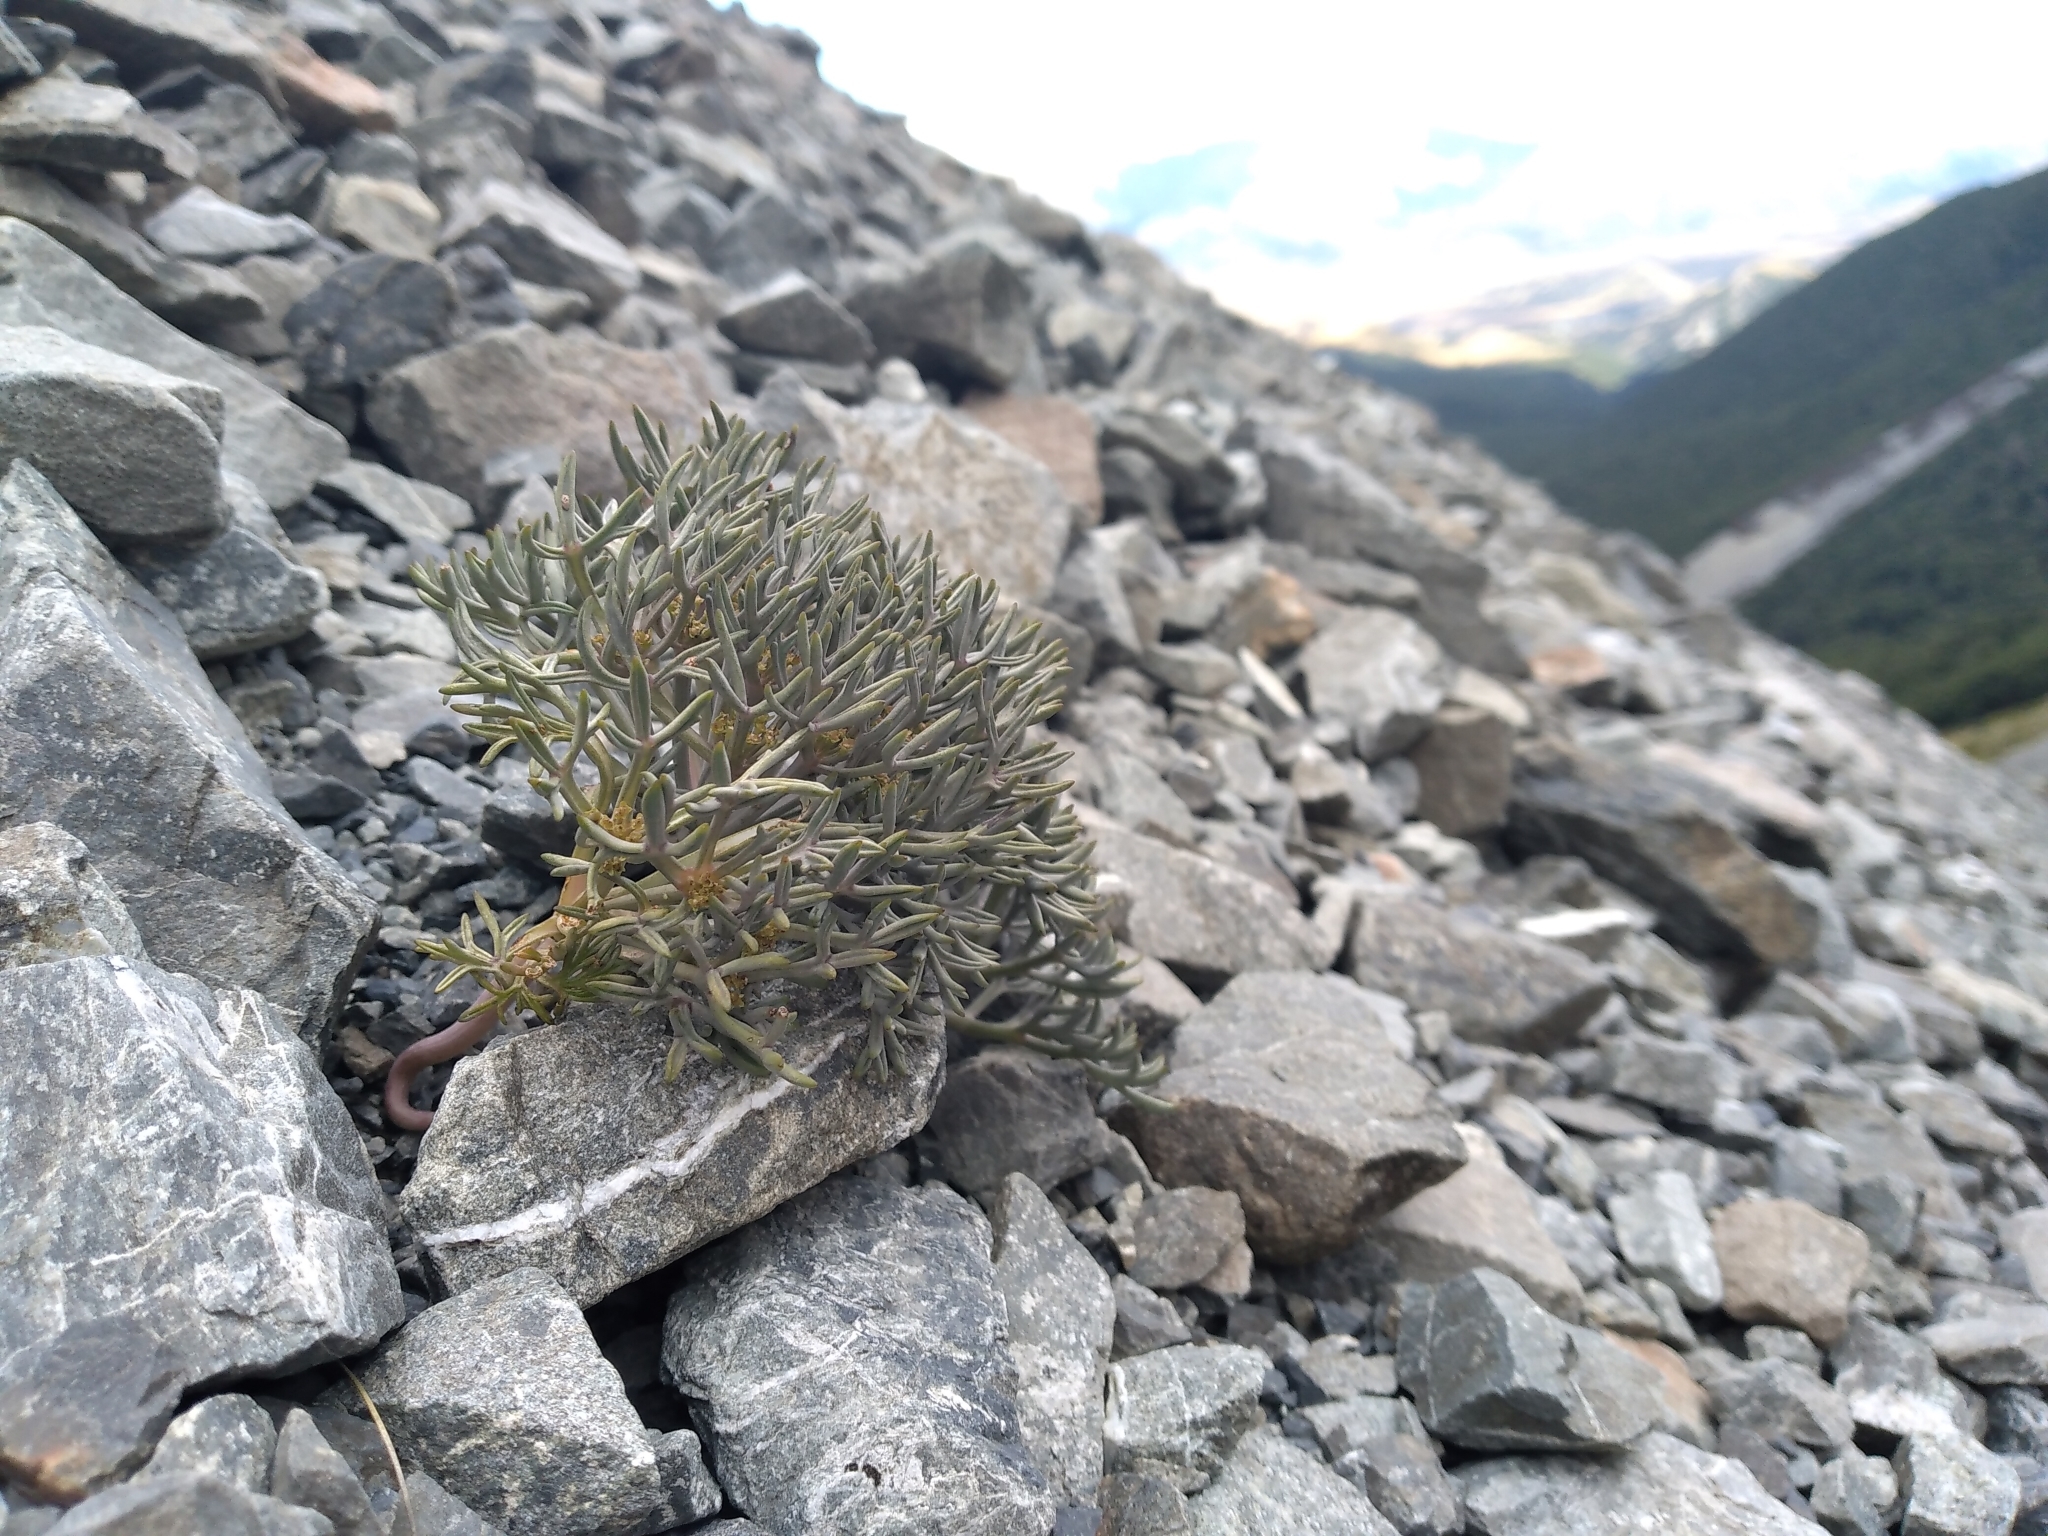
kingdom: Plantae
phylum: Tracheophyta
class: Magnoliopsida
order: Apiales
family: Apiaceae
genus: Lignocarpa
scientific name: Lignocarpa carnosula
